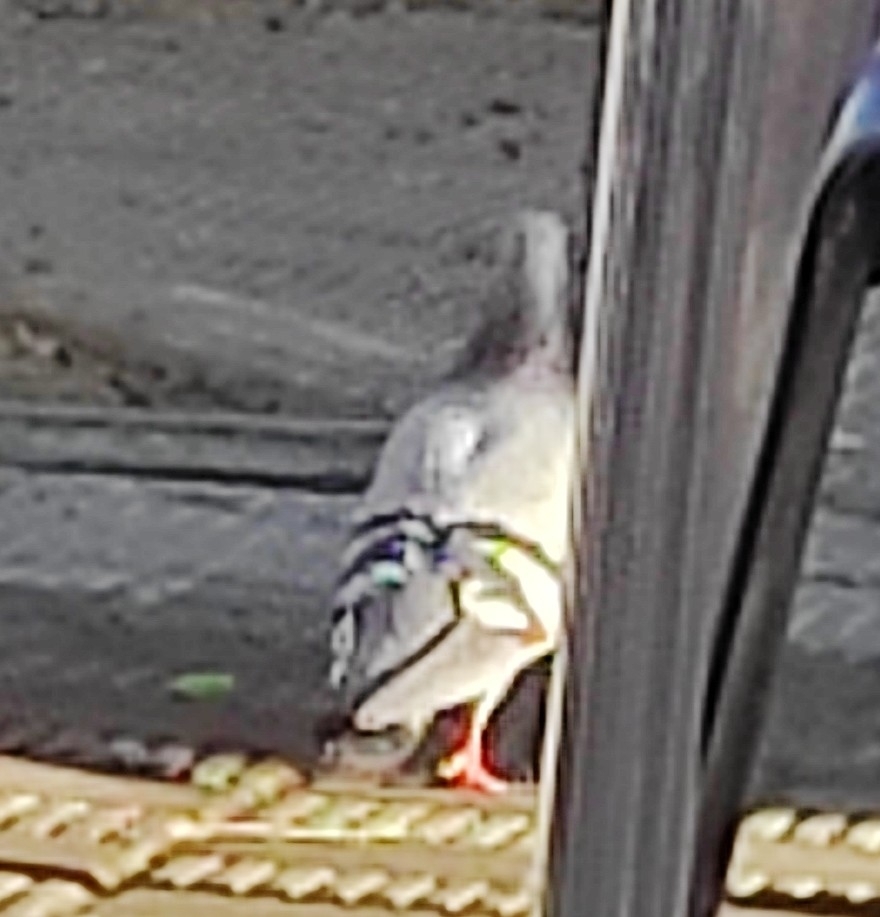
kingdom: Animalia
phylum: Chordata
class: Aves
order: Columbiformes
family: Columbidae
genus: Columba
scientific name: Columba livia
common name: Rock pigeon
